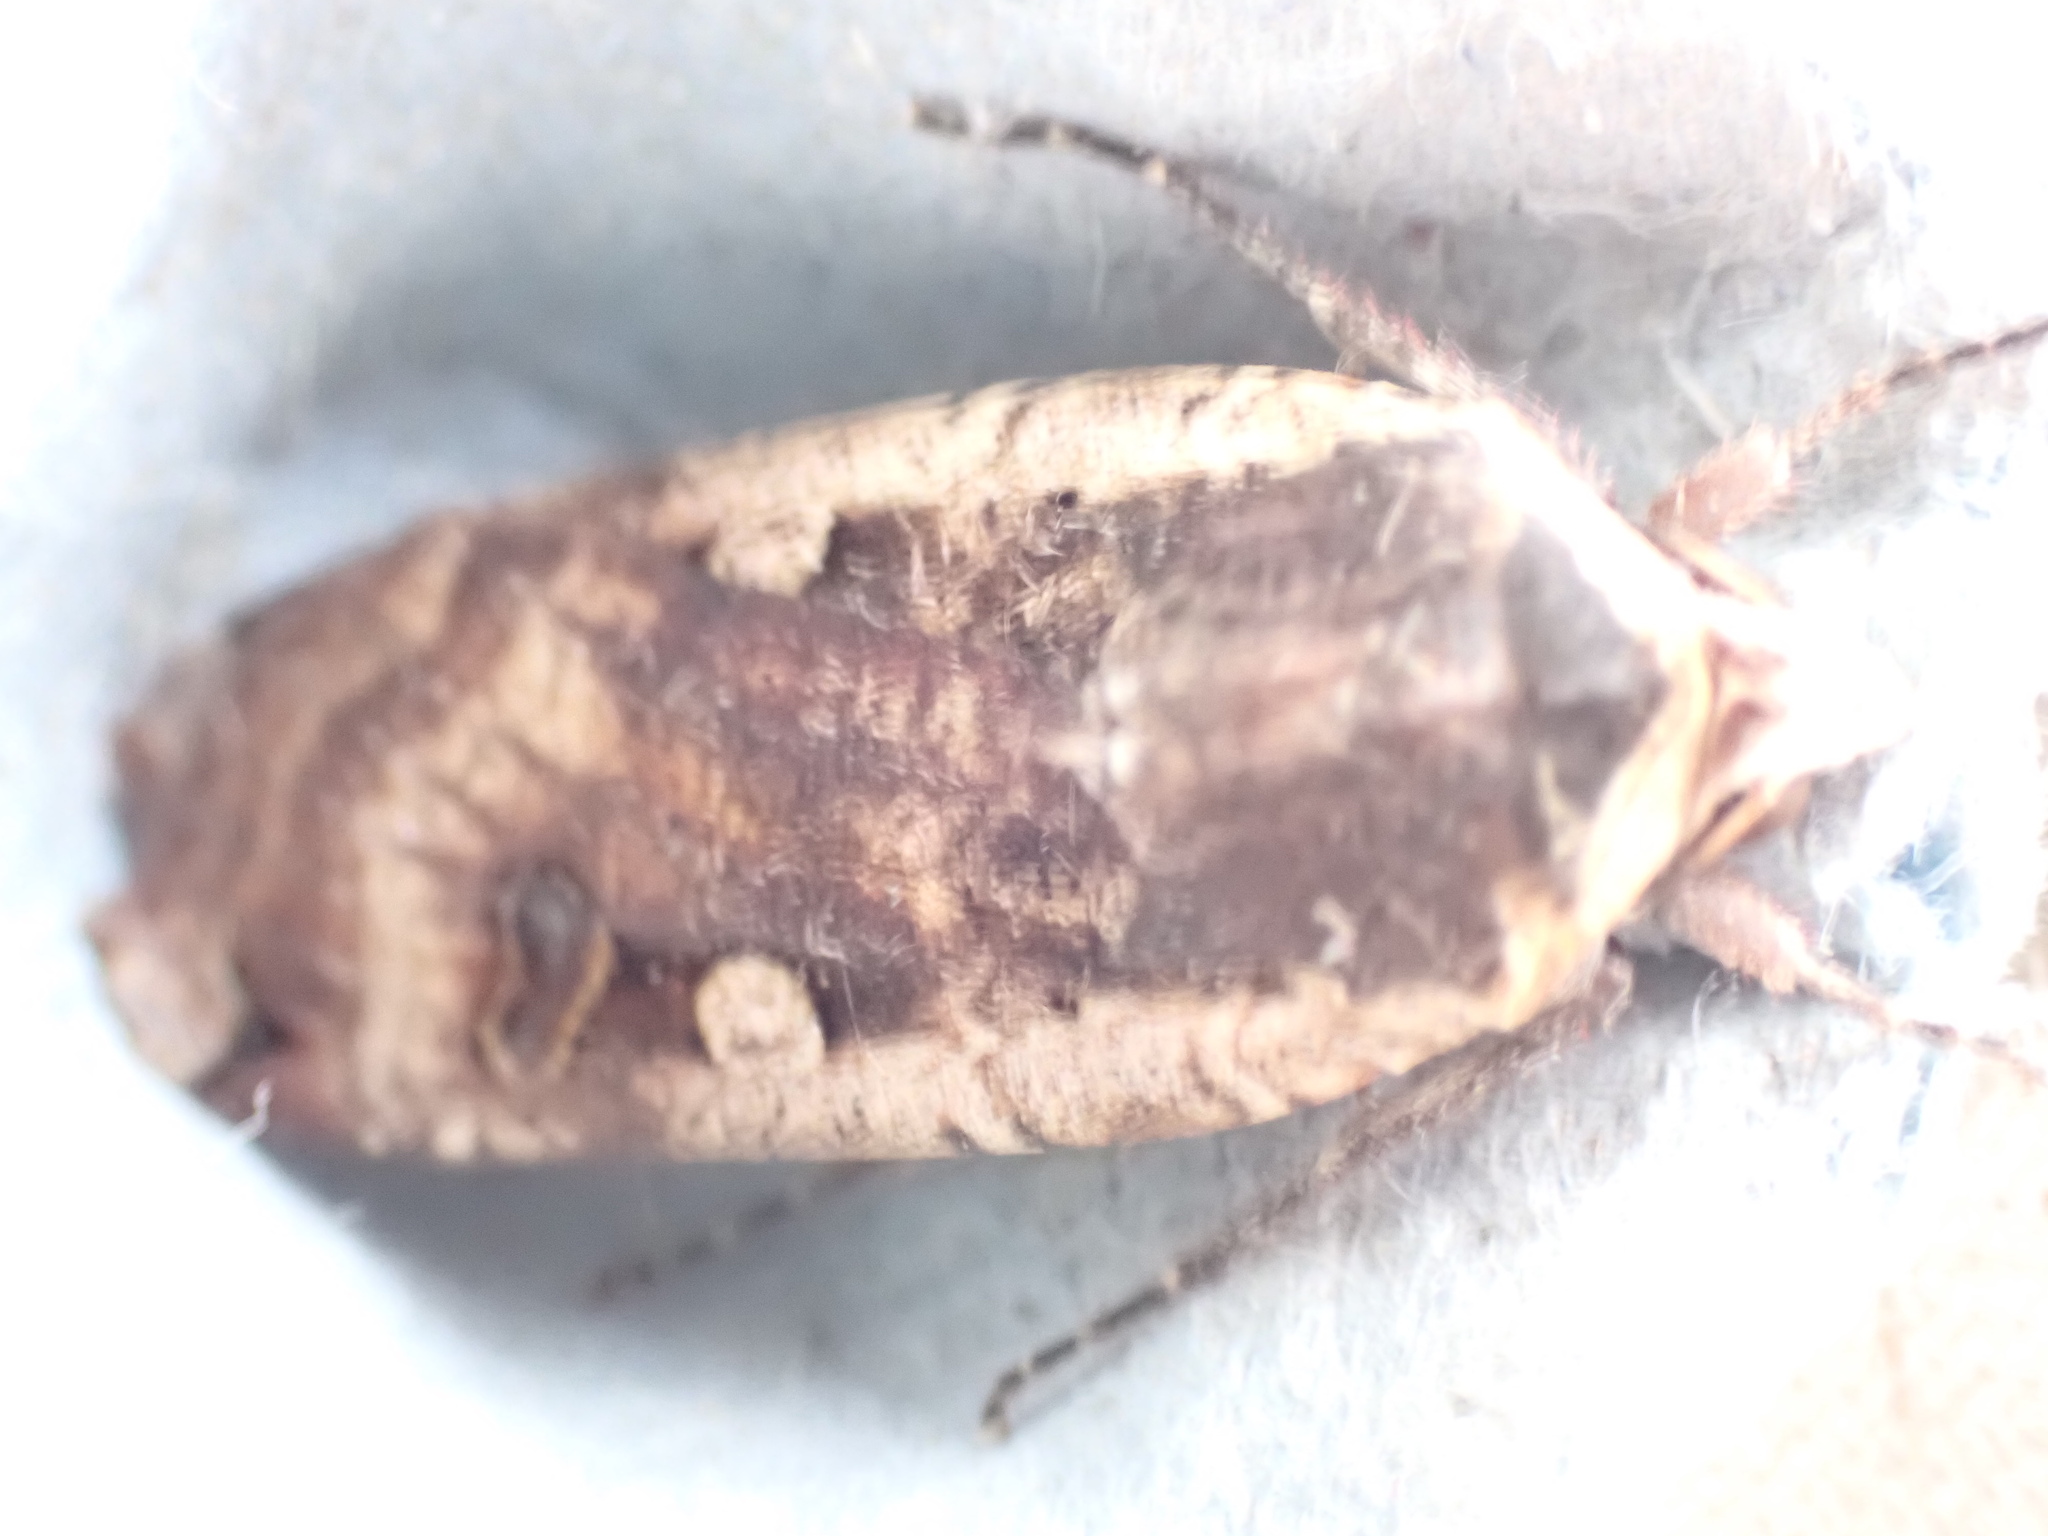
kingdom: Animalia
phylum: Arthropoda
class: Insecta
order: Lepidoptera
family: Noctuidae
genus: Noctua
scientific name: Noctua pronuba
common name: Large yellow underwing
